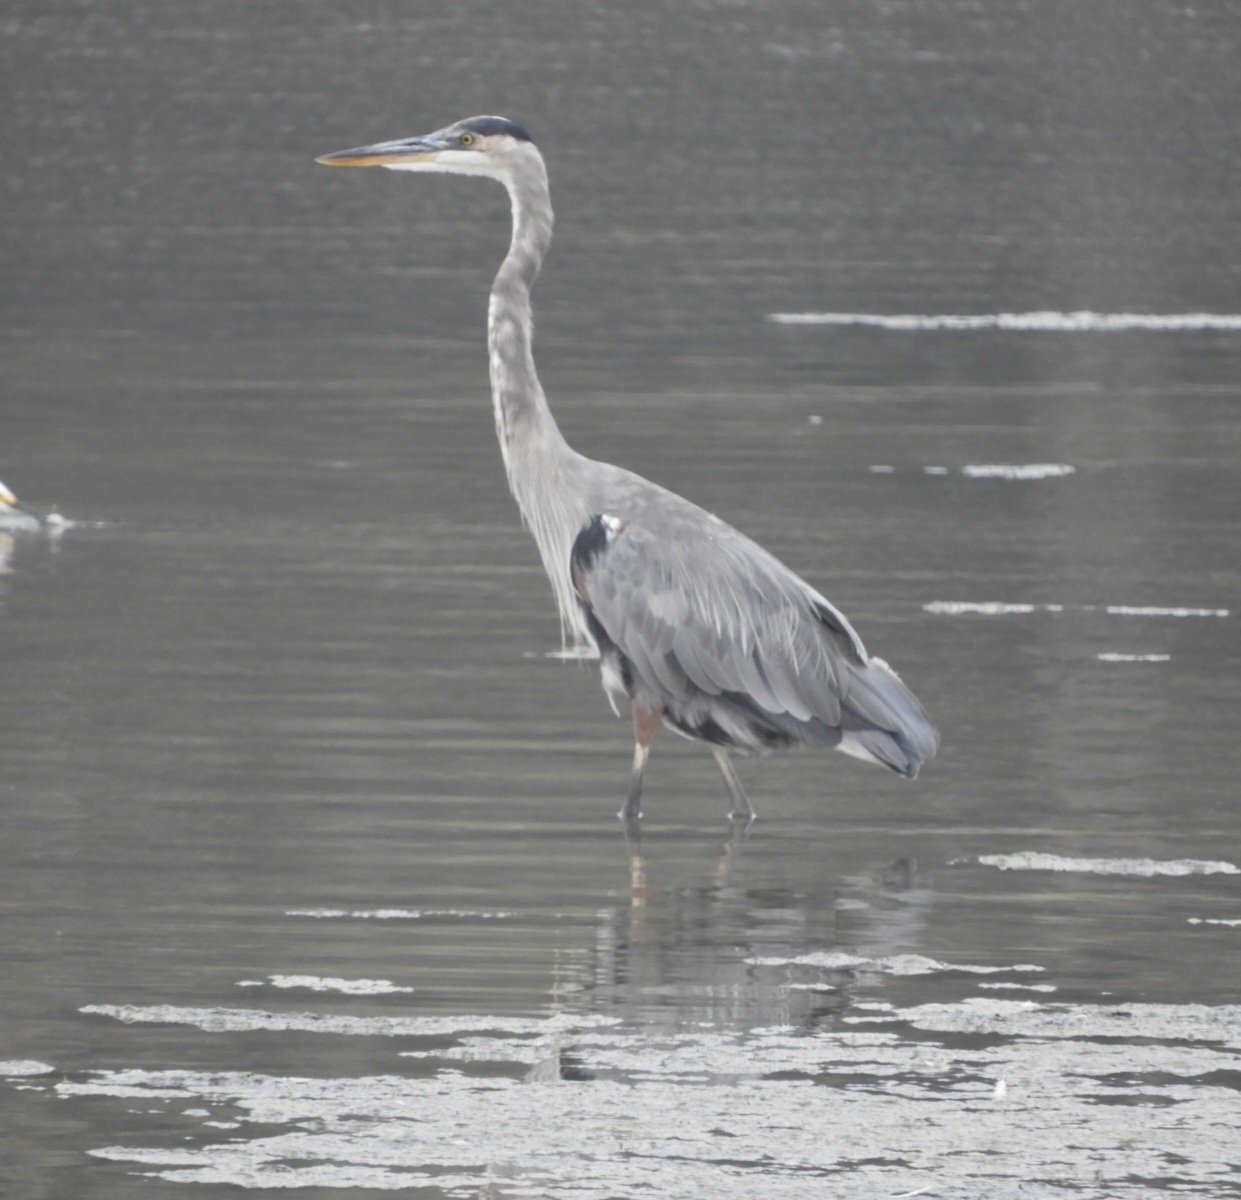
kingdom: Animalia
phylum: Chordata
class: Aves
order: Pelecaniformes
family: Ardeidae
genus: Ardea
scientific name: Ardea herodias
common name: Great blue heron
